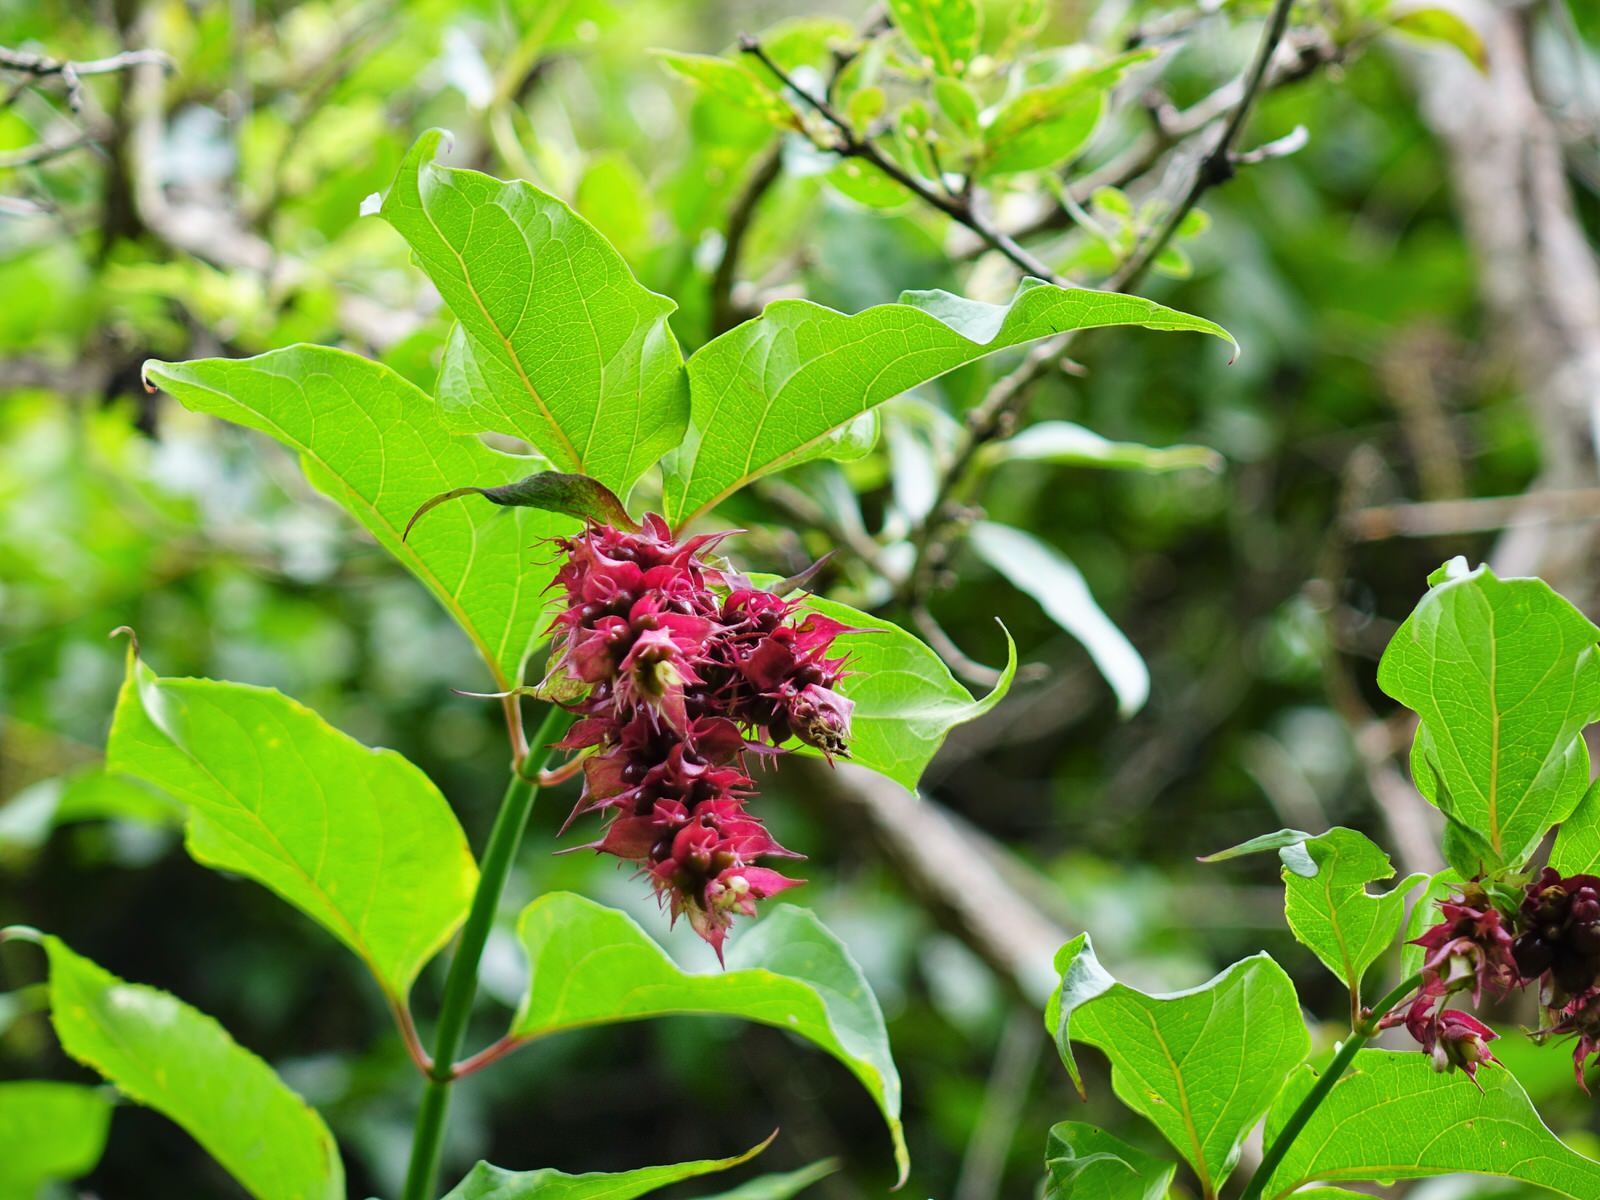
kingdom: Plantae
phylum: Tracheophyta
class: Magnoliopsida
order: Dipsacales
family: Caprifoliaceae
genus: Leycesteria
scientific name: Leycesteria formosa
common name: Himalayan honeysuckle
